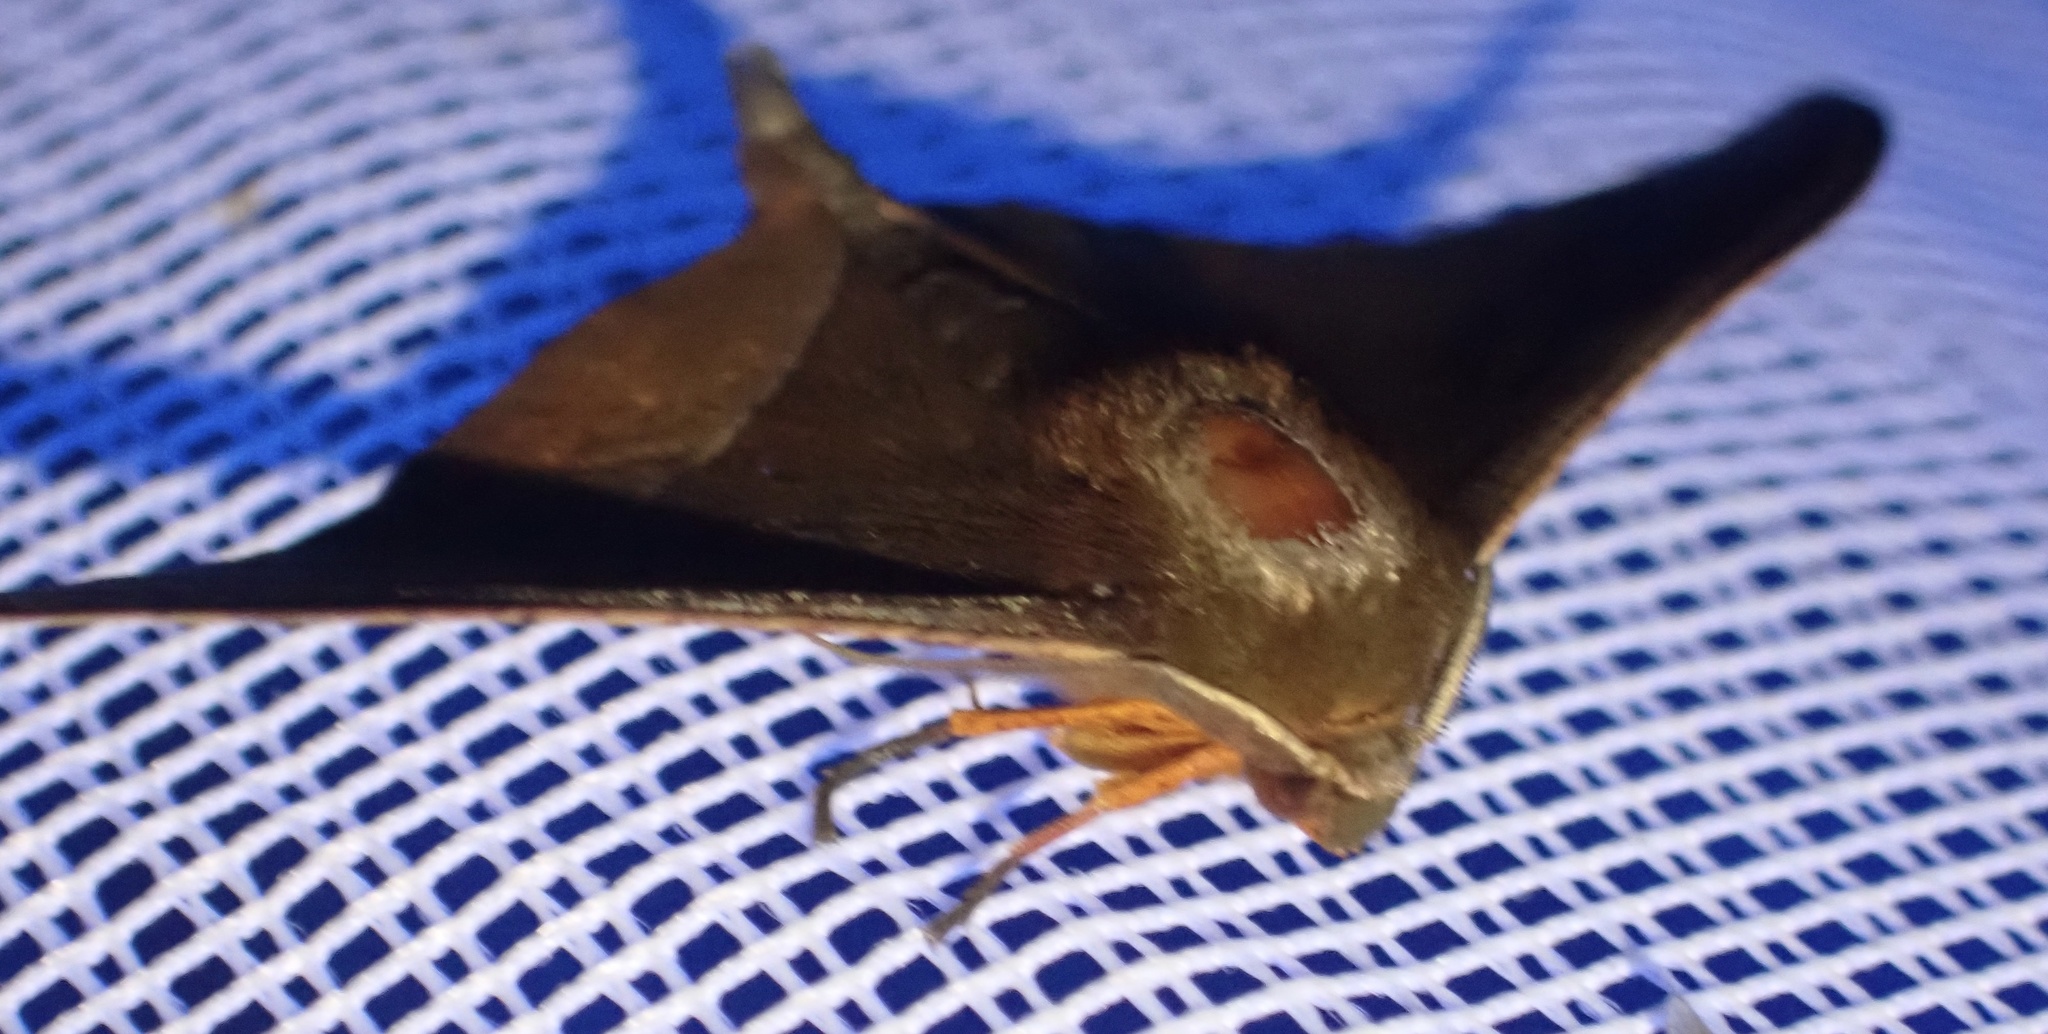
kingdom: Animalia
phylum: Arthropoda
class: Insecta
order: Lepidoptera
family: Geometridae
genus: Plegapteryx
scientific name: Plegapteryx anomalus
